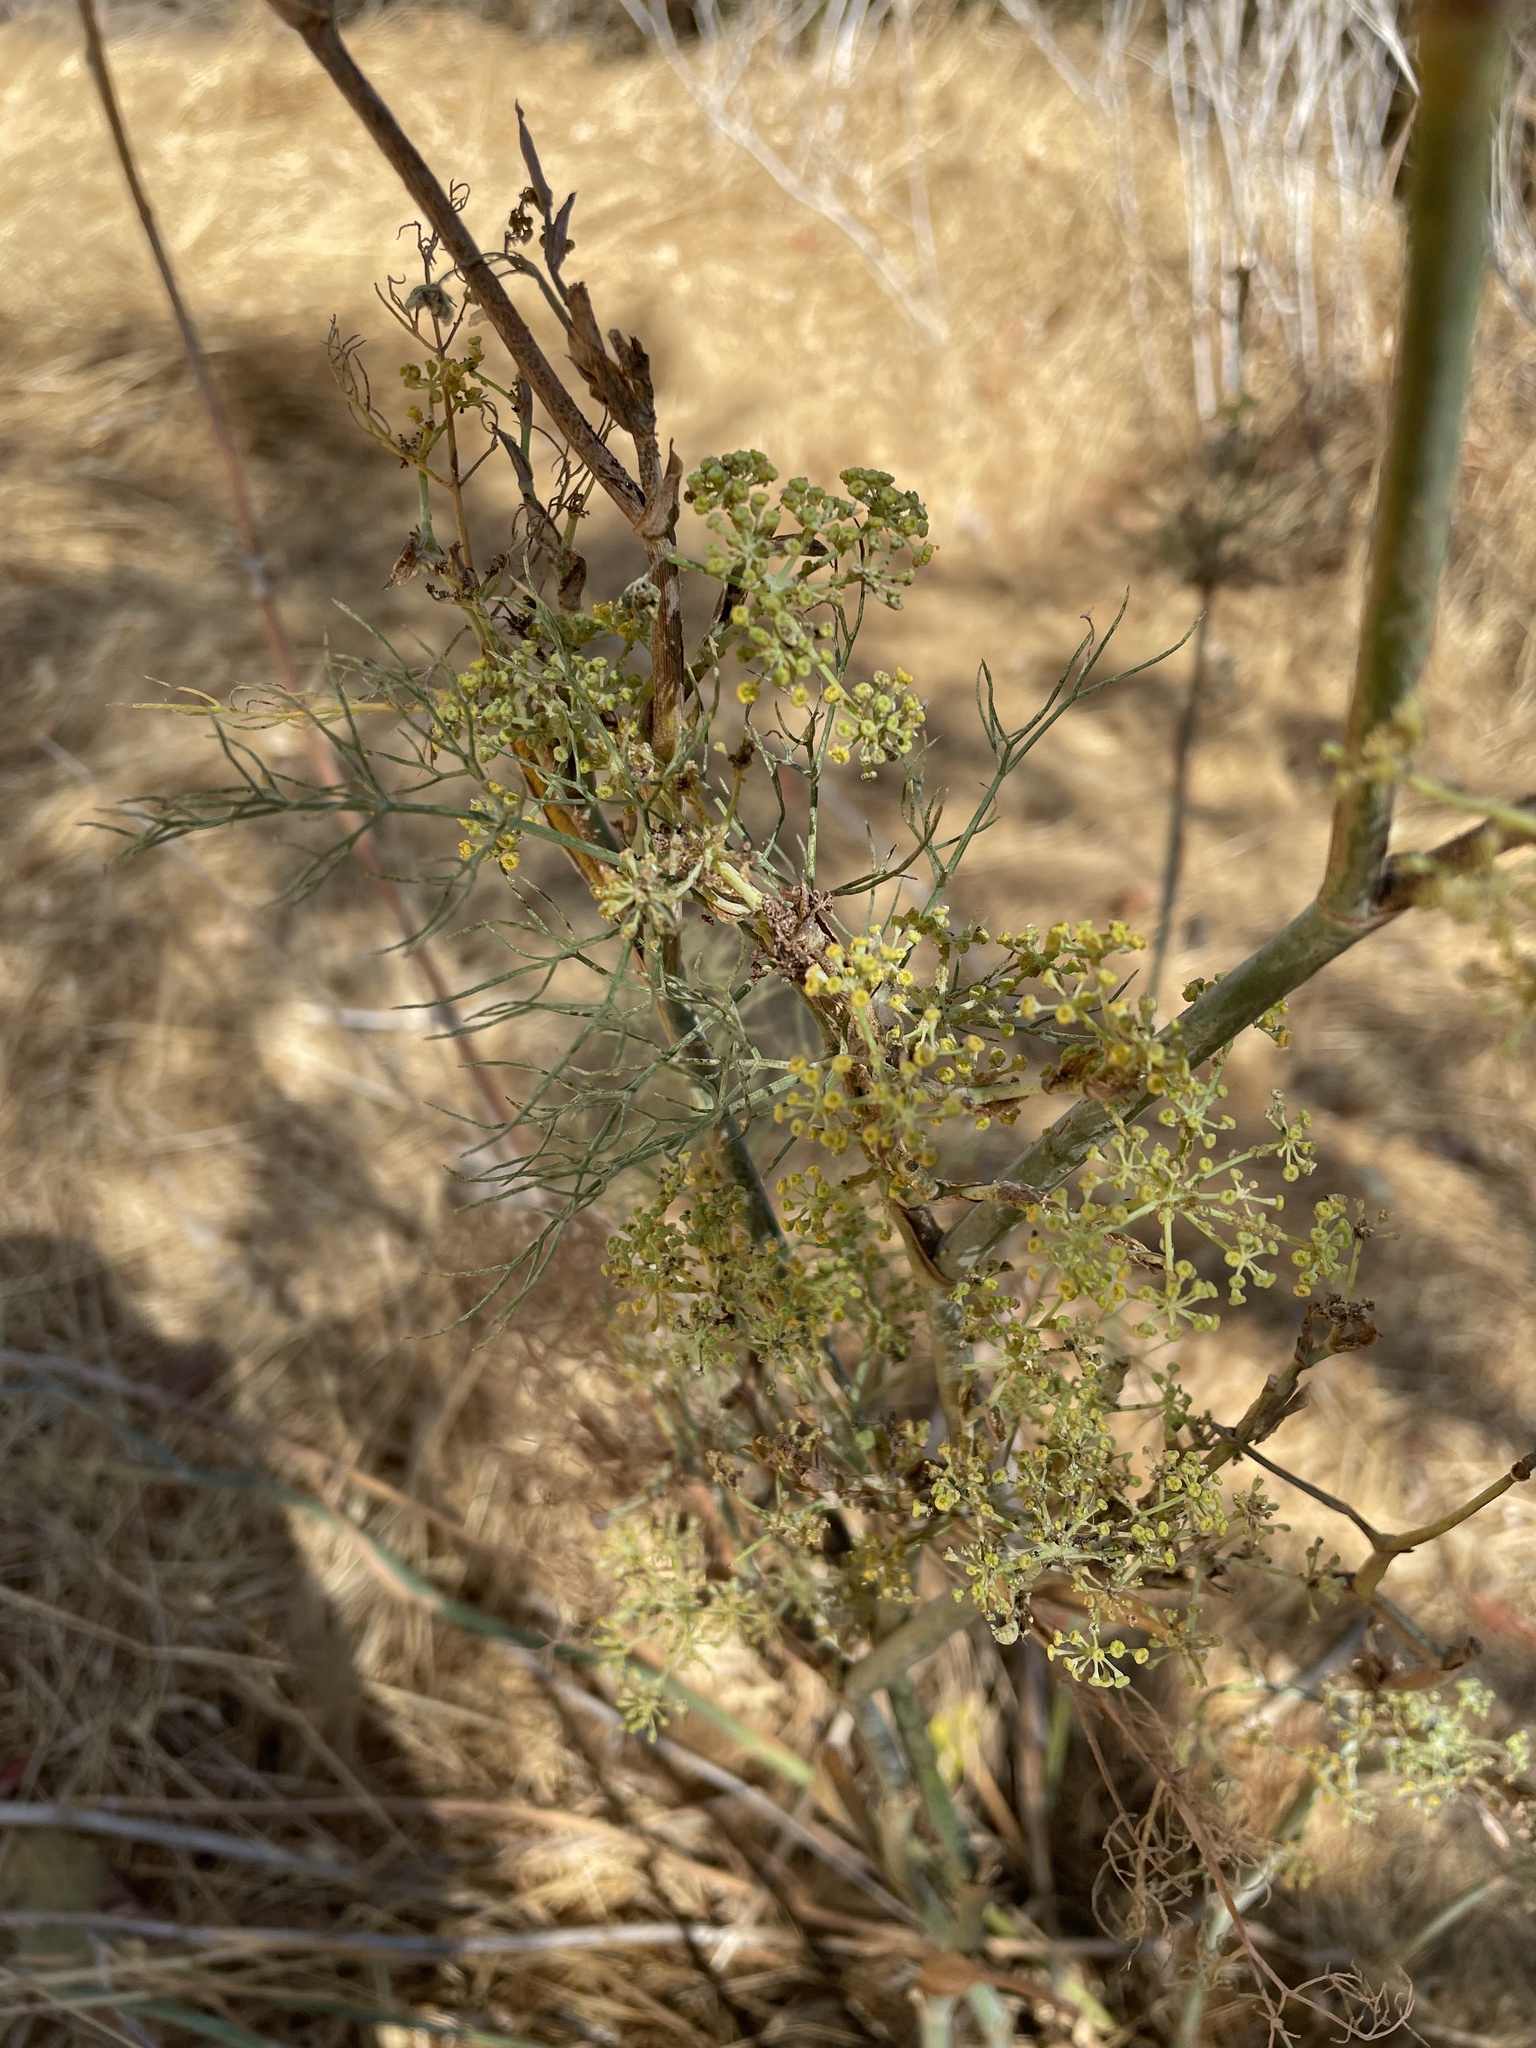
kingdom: Plantae
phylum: Tracheophyta
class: Magnoliopsida
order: Apiales
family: Apiaceae
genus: Foeniculum
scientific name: Foeniculum vulgare
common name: Fennel
